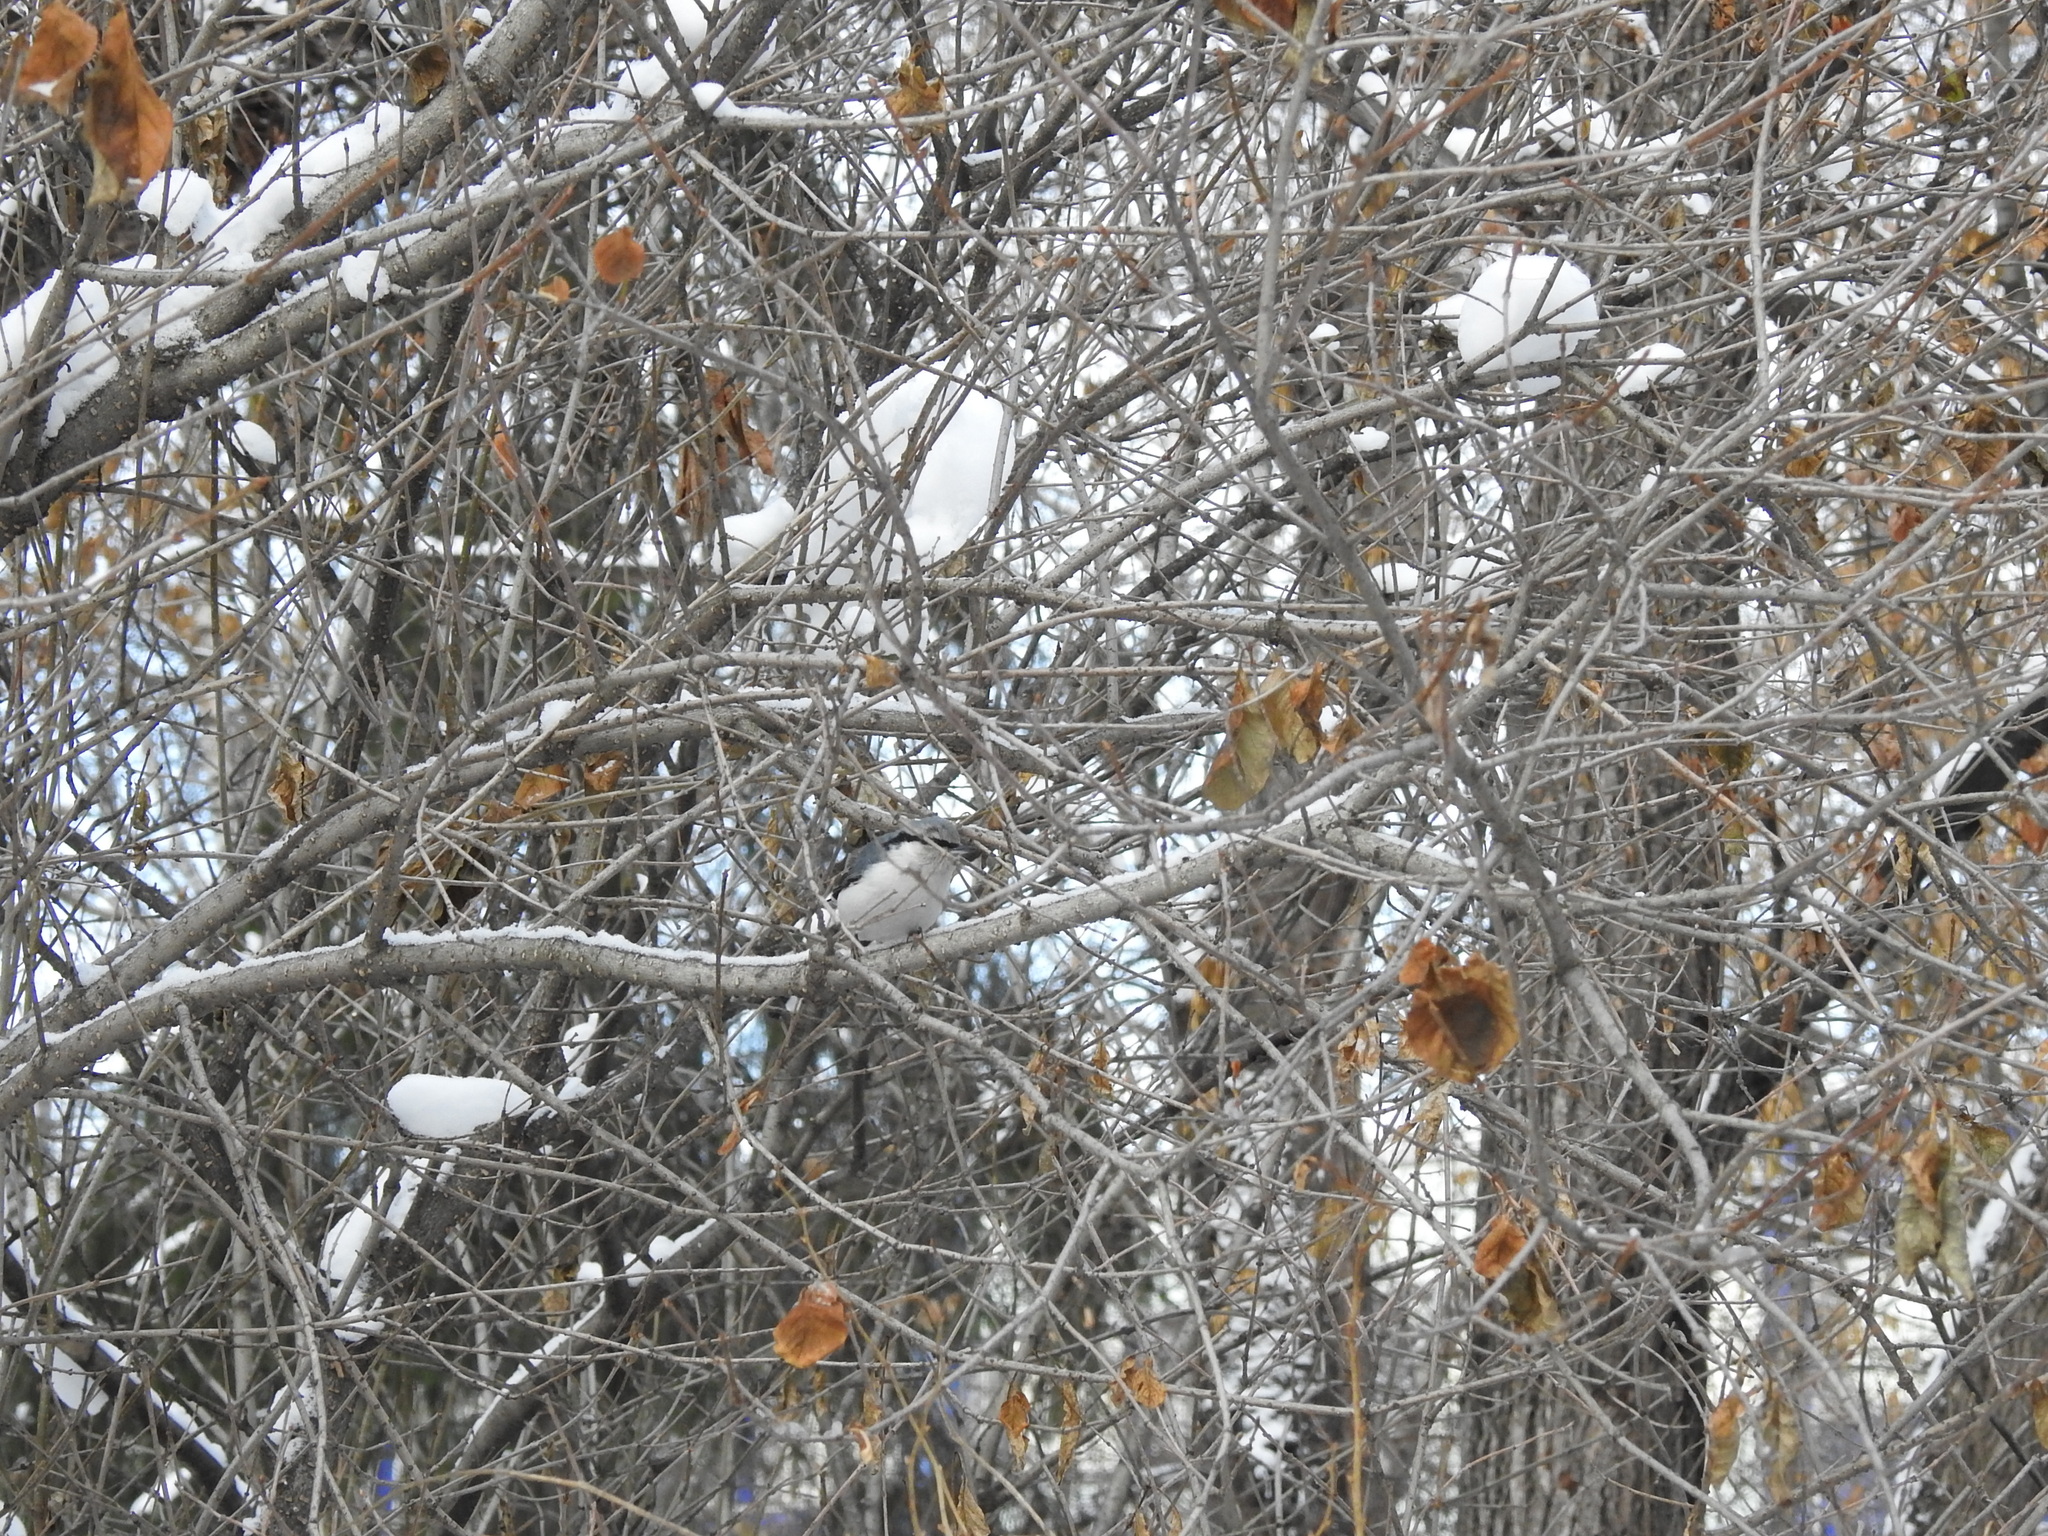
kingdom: Animalia
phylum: Chordata
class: Aves
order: Passeriformes
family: Sittidae
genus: Sitta
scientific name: Sitta europaea
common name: Eurasian nuthatch
